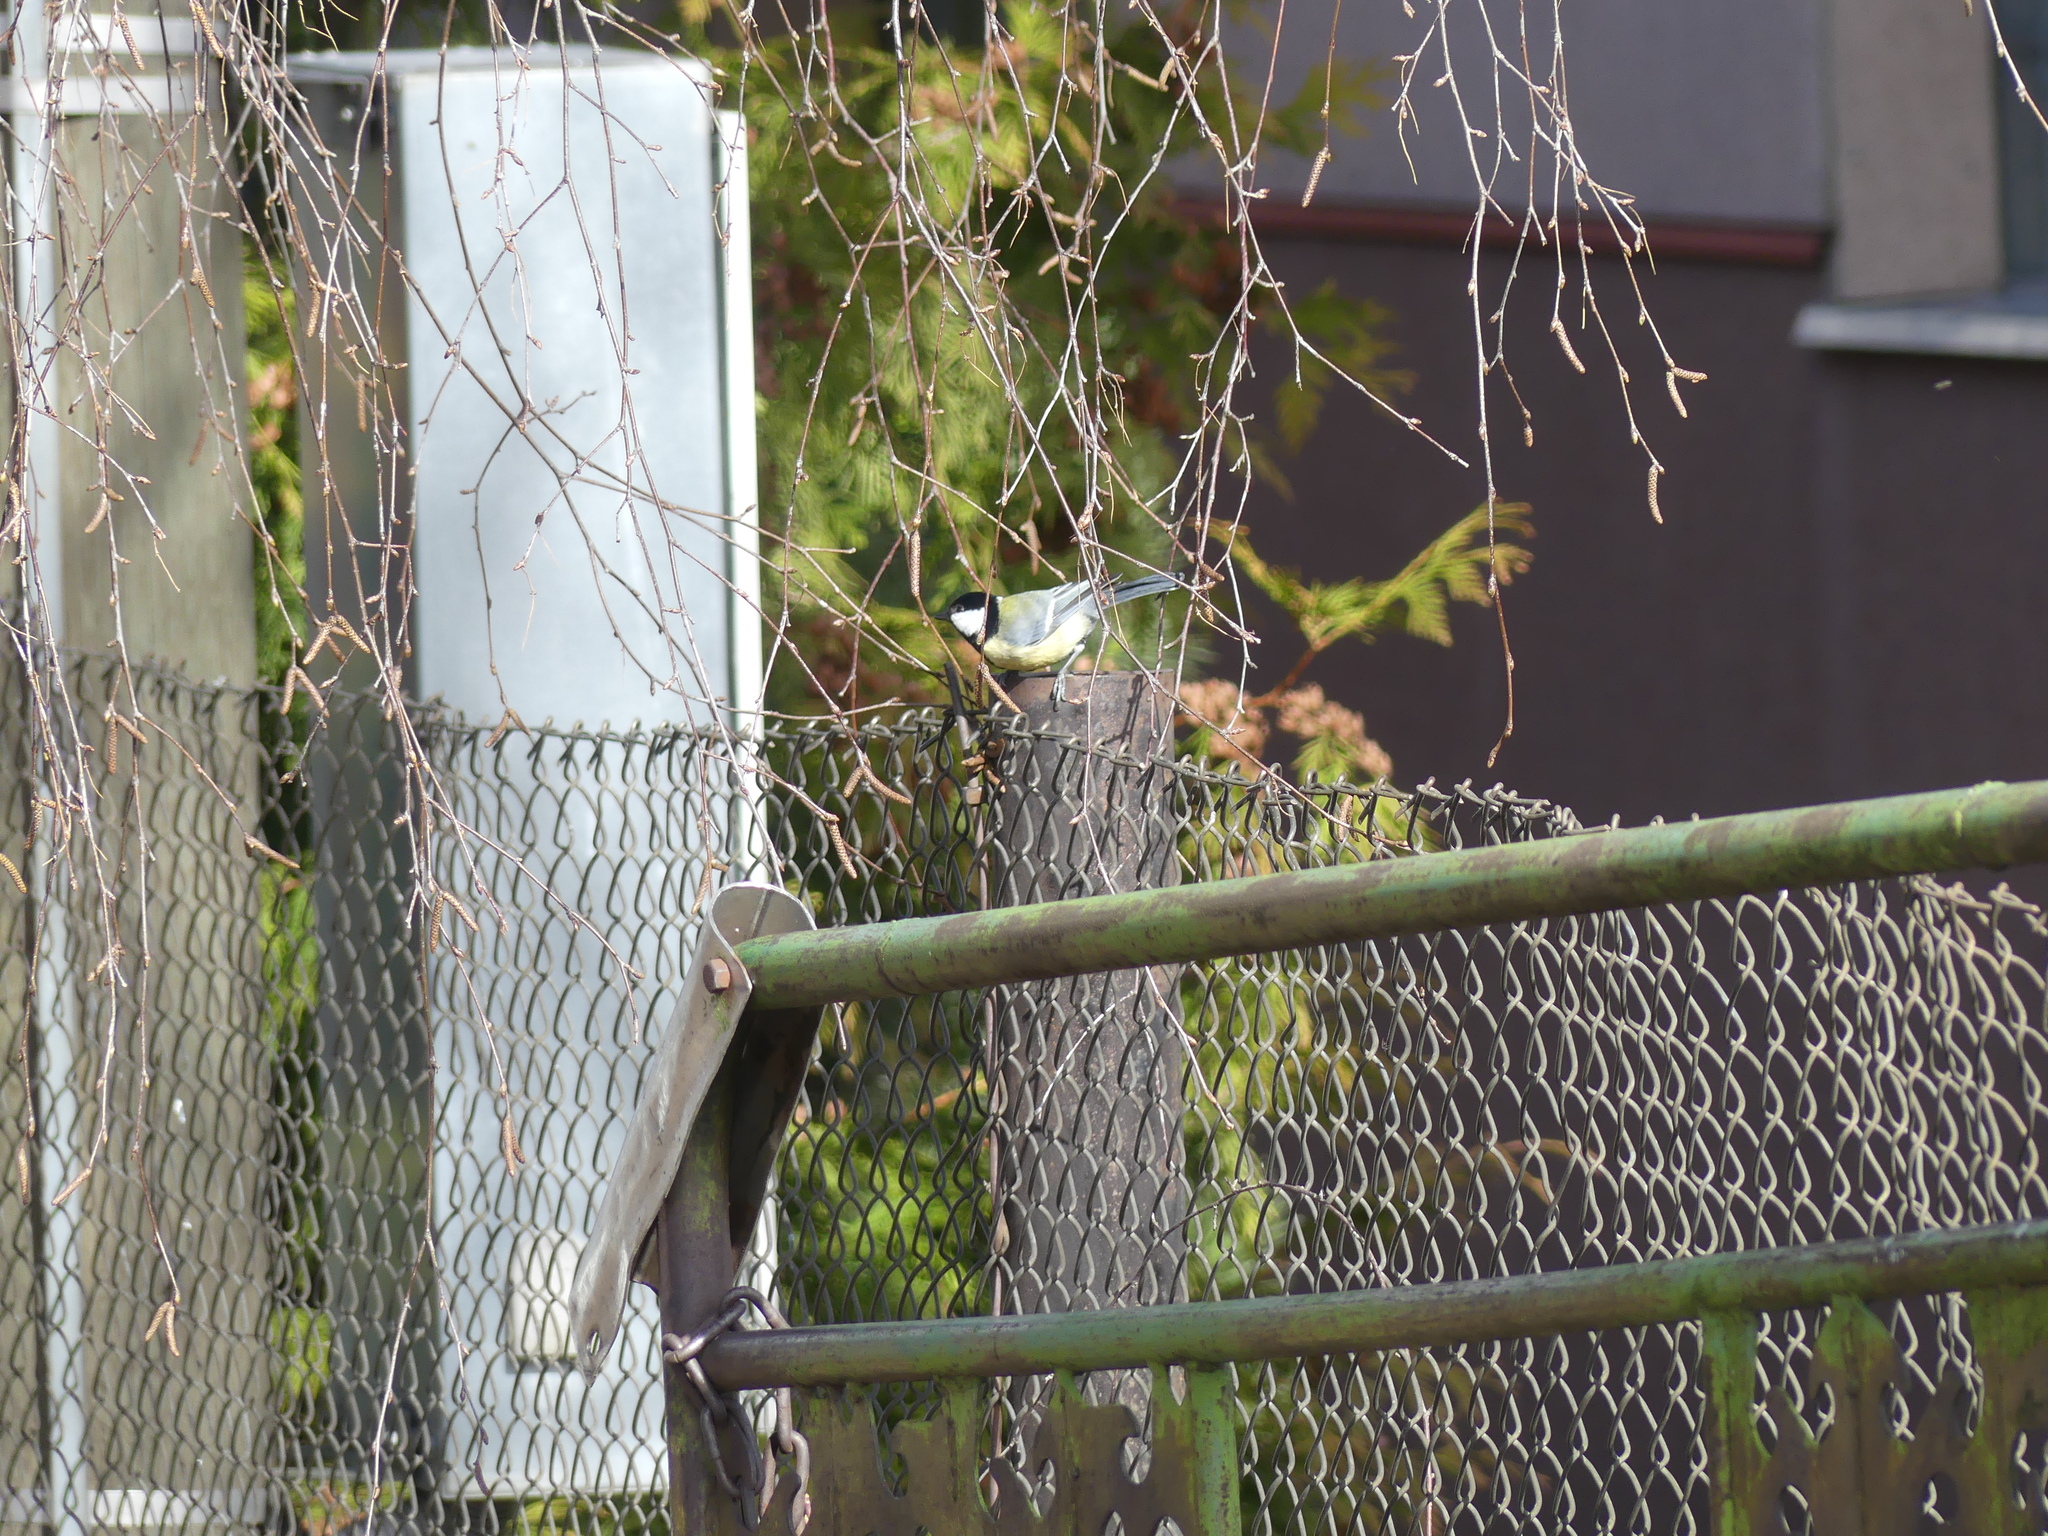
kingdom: Animalia
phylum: Chordata
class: Aves
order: Passeriformes
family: Paridae
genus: Parus
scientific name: Parus major
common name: Great tit
